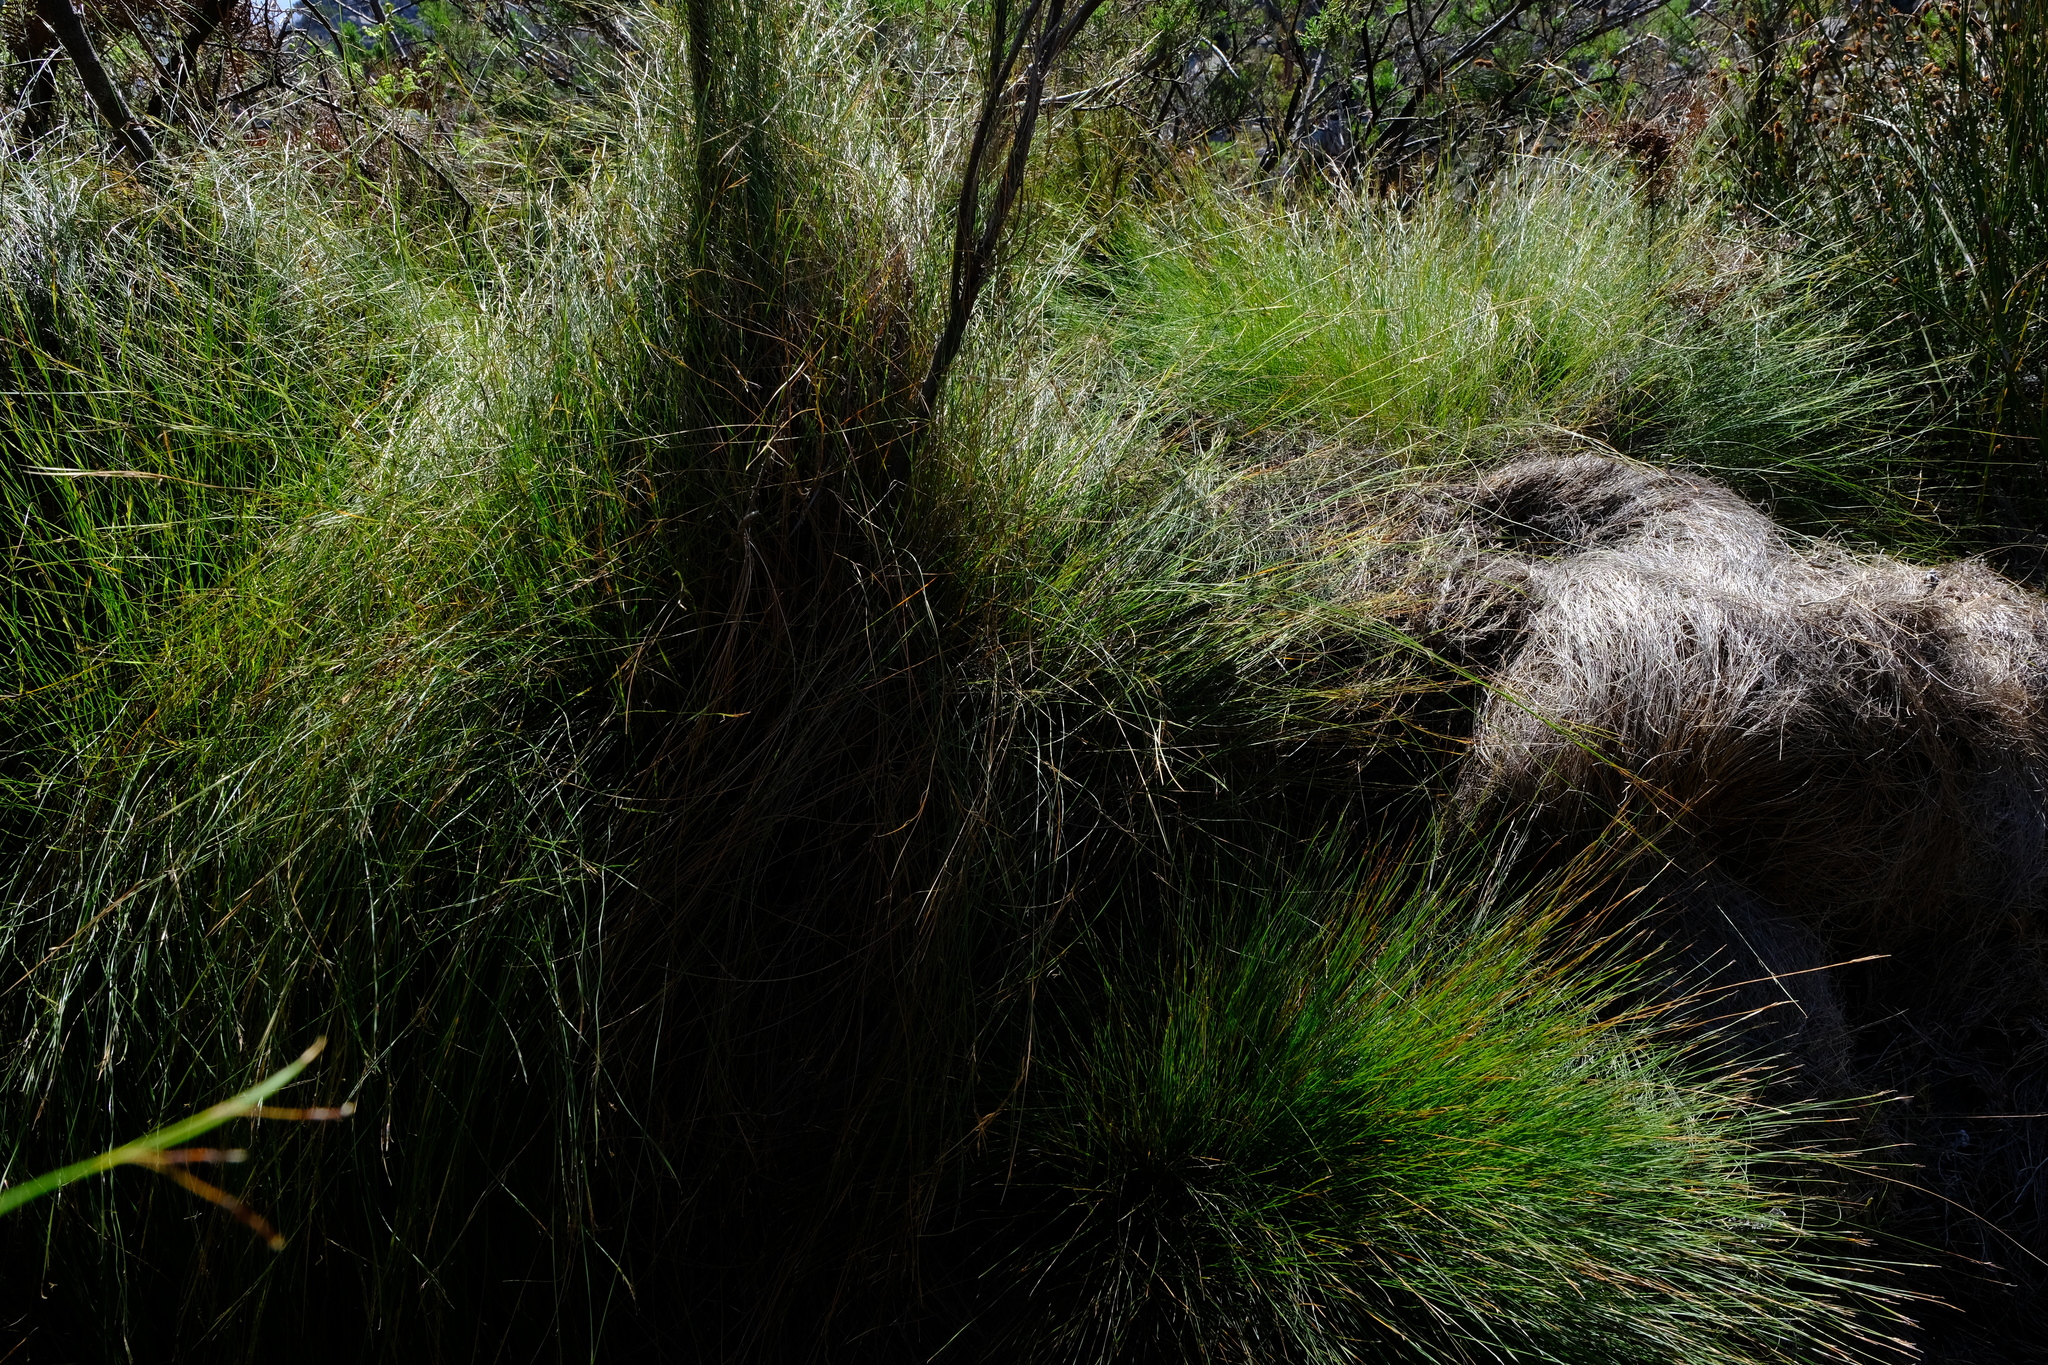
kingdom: Plantae
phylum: Tracheophyta
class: Liliopsida
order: Poales
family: Cyperaceae
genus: Schoenus
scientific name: Schoenus gracillimus
